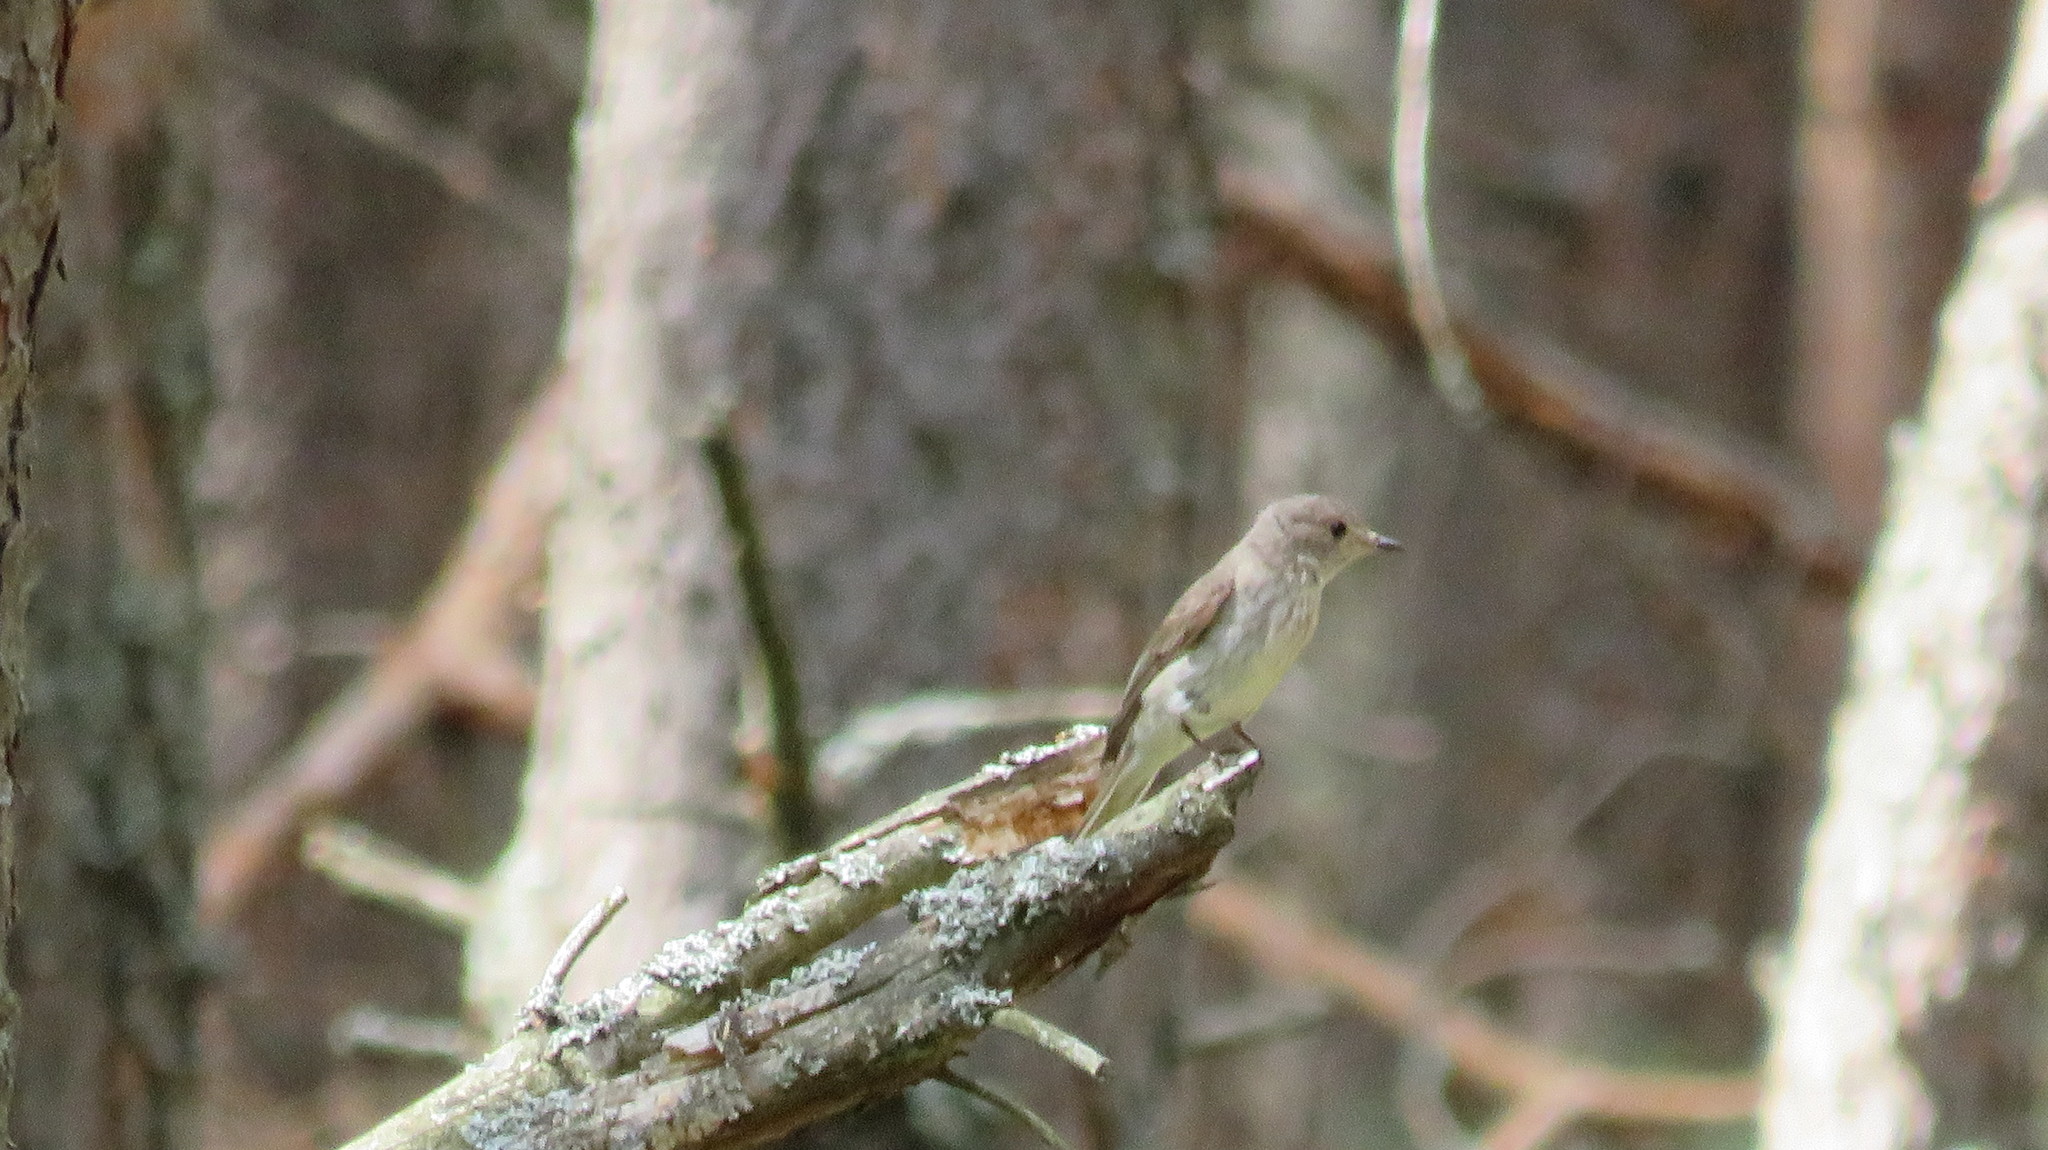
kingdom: Animalia
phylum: Chordata
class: Aves
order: Passeriformes
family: Muscicapidae
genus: Muscicapa
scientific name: Muscicapa striata
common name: Spotted flycatcher
